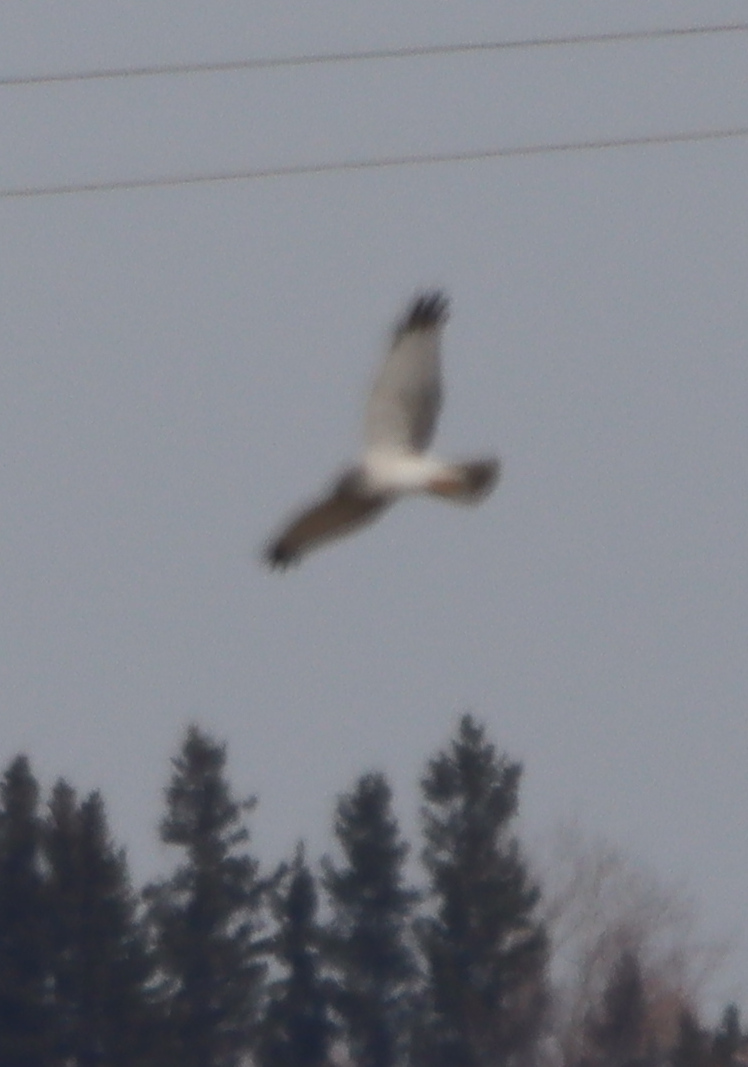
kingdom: Animalia
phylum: Chordata
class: Aves
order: Accipitriformes
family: Accipitridae
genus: Circus
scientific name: Circus cyaneus
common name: Hen harrier
